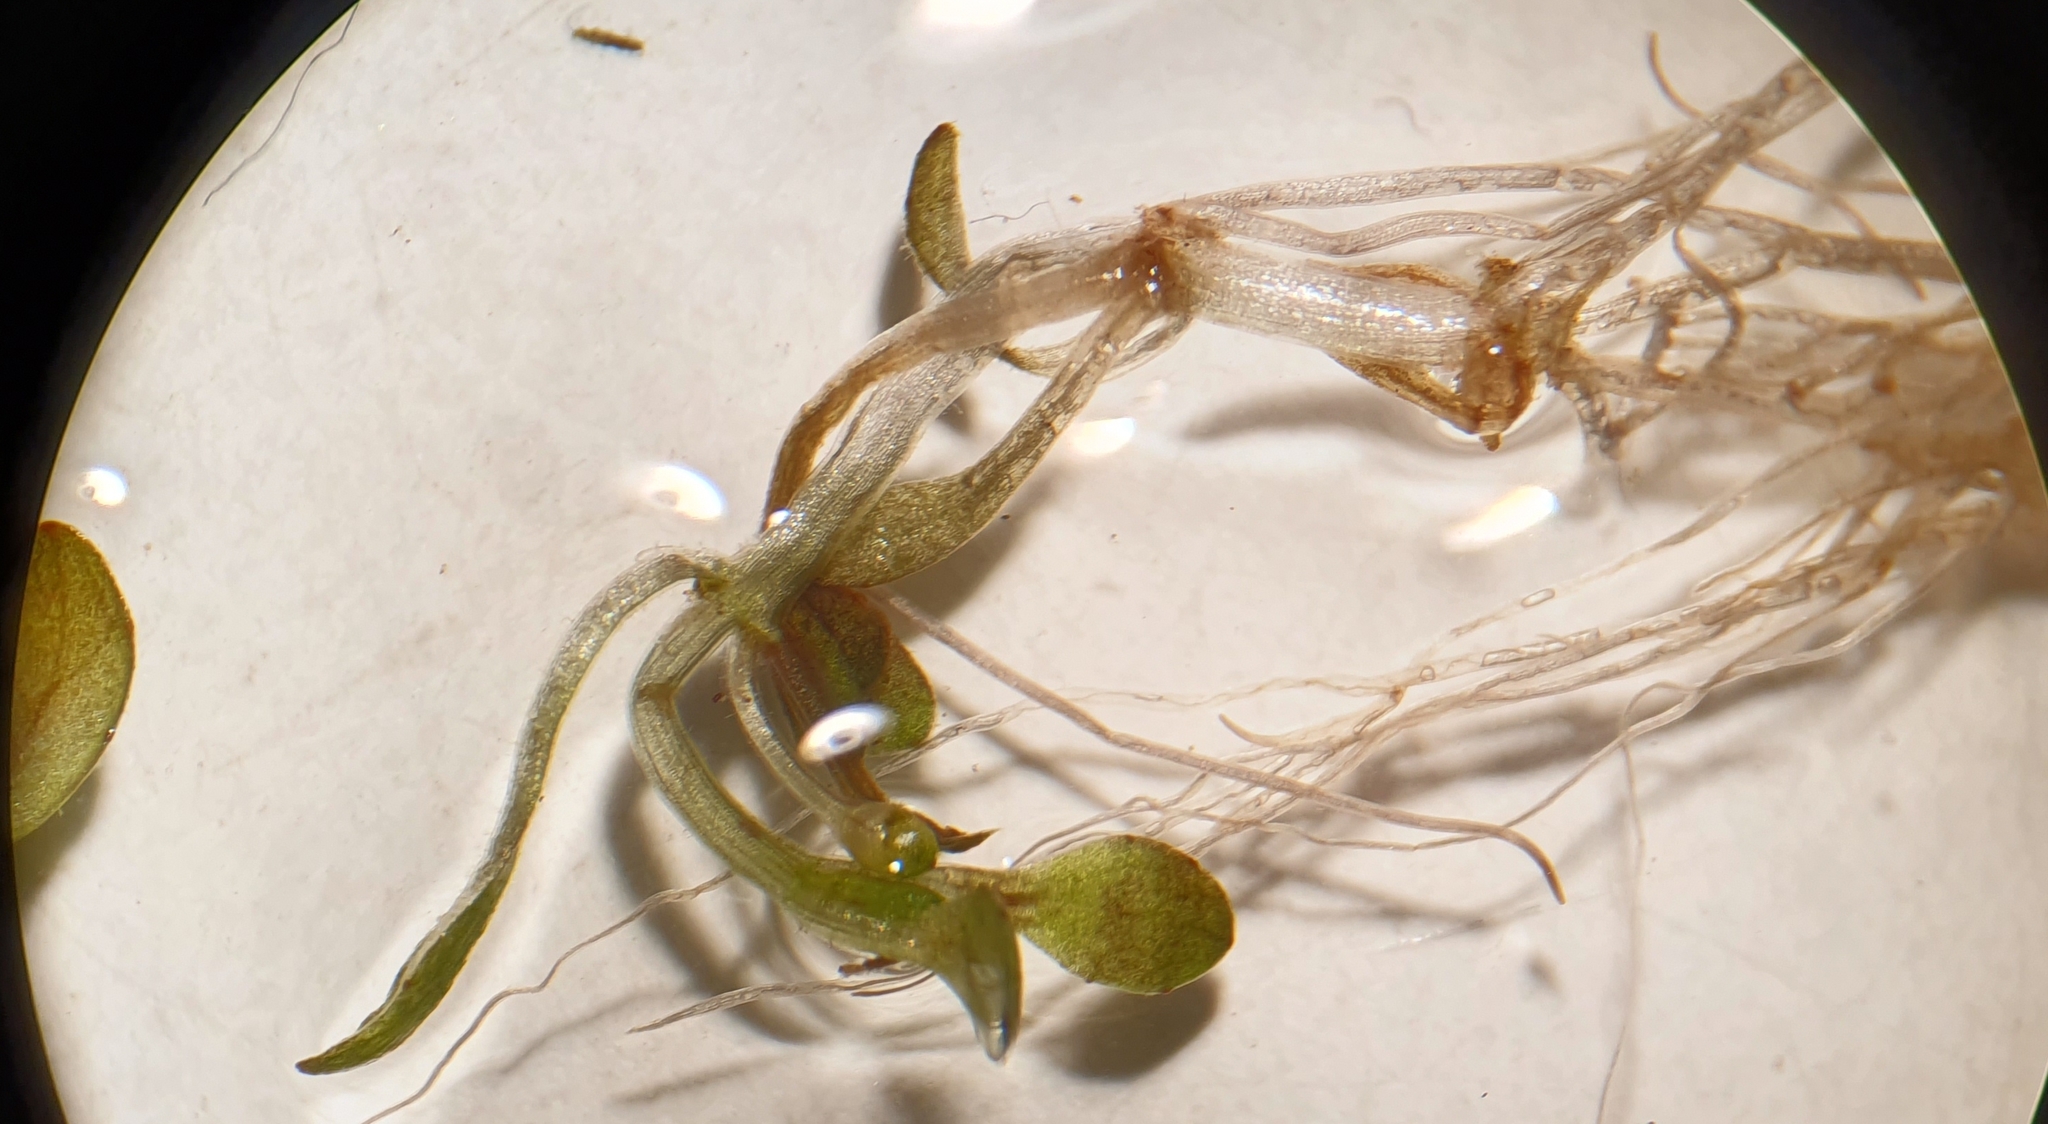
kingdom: Plantae
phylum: Tracheophyta
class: Magnoliopsida
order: Malpighiales
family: Elatinaceae
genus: Elatine
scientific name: Elatine hexandra
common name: Six-stamened waterwort
